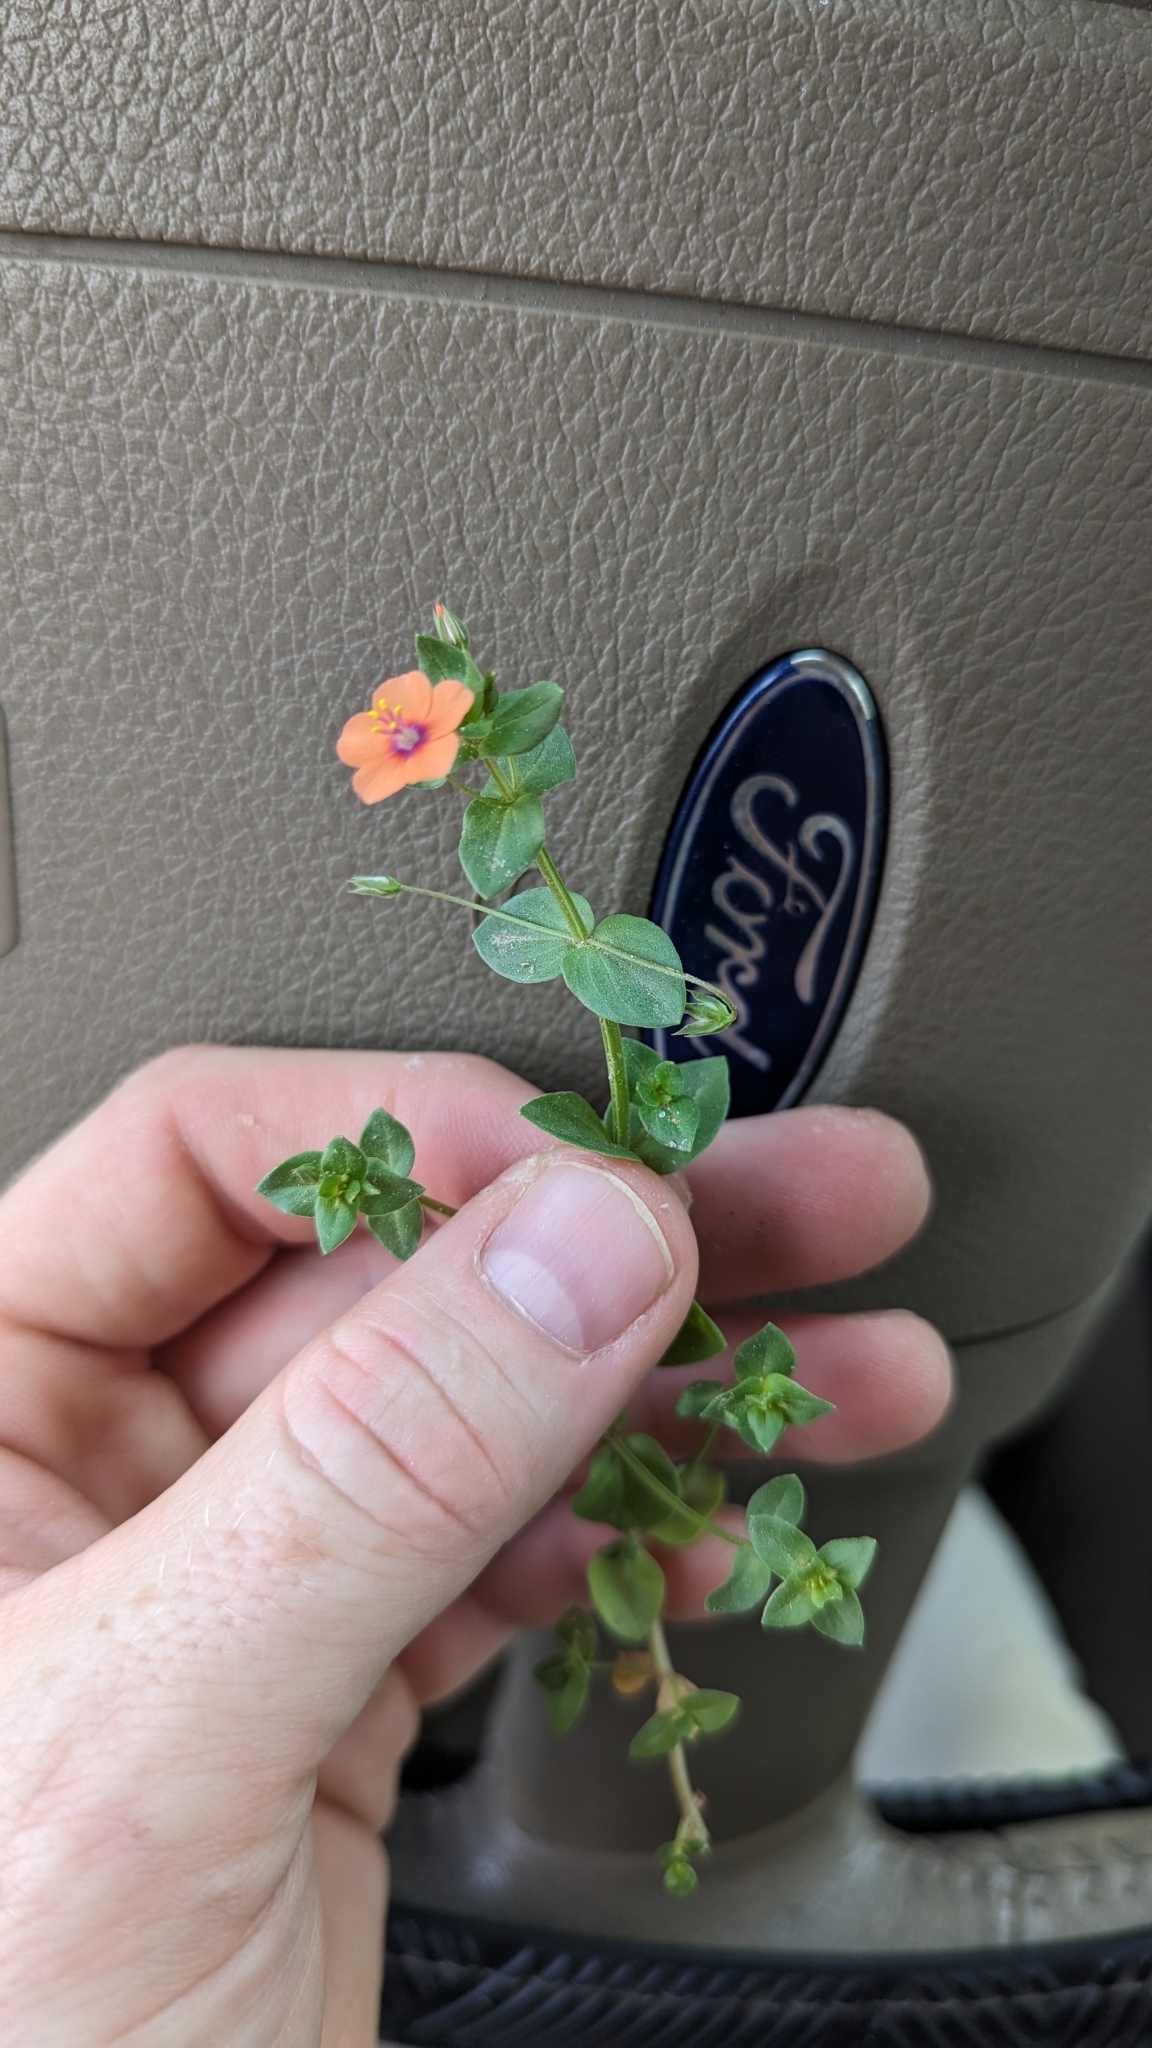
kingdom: Plantae
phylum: Tracheophyta
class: Magnoliopsida
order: Ericales
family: Primulaceae
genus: Lysimachia
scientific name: Lysimachia arvensis
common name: Scarlet pimpernel
